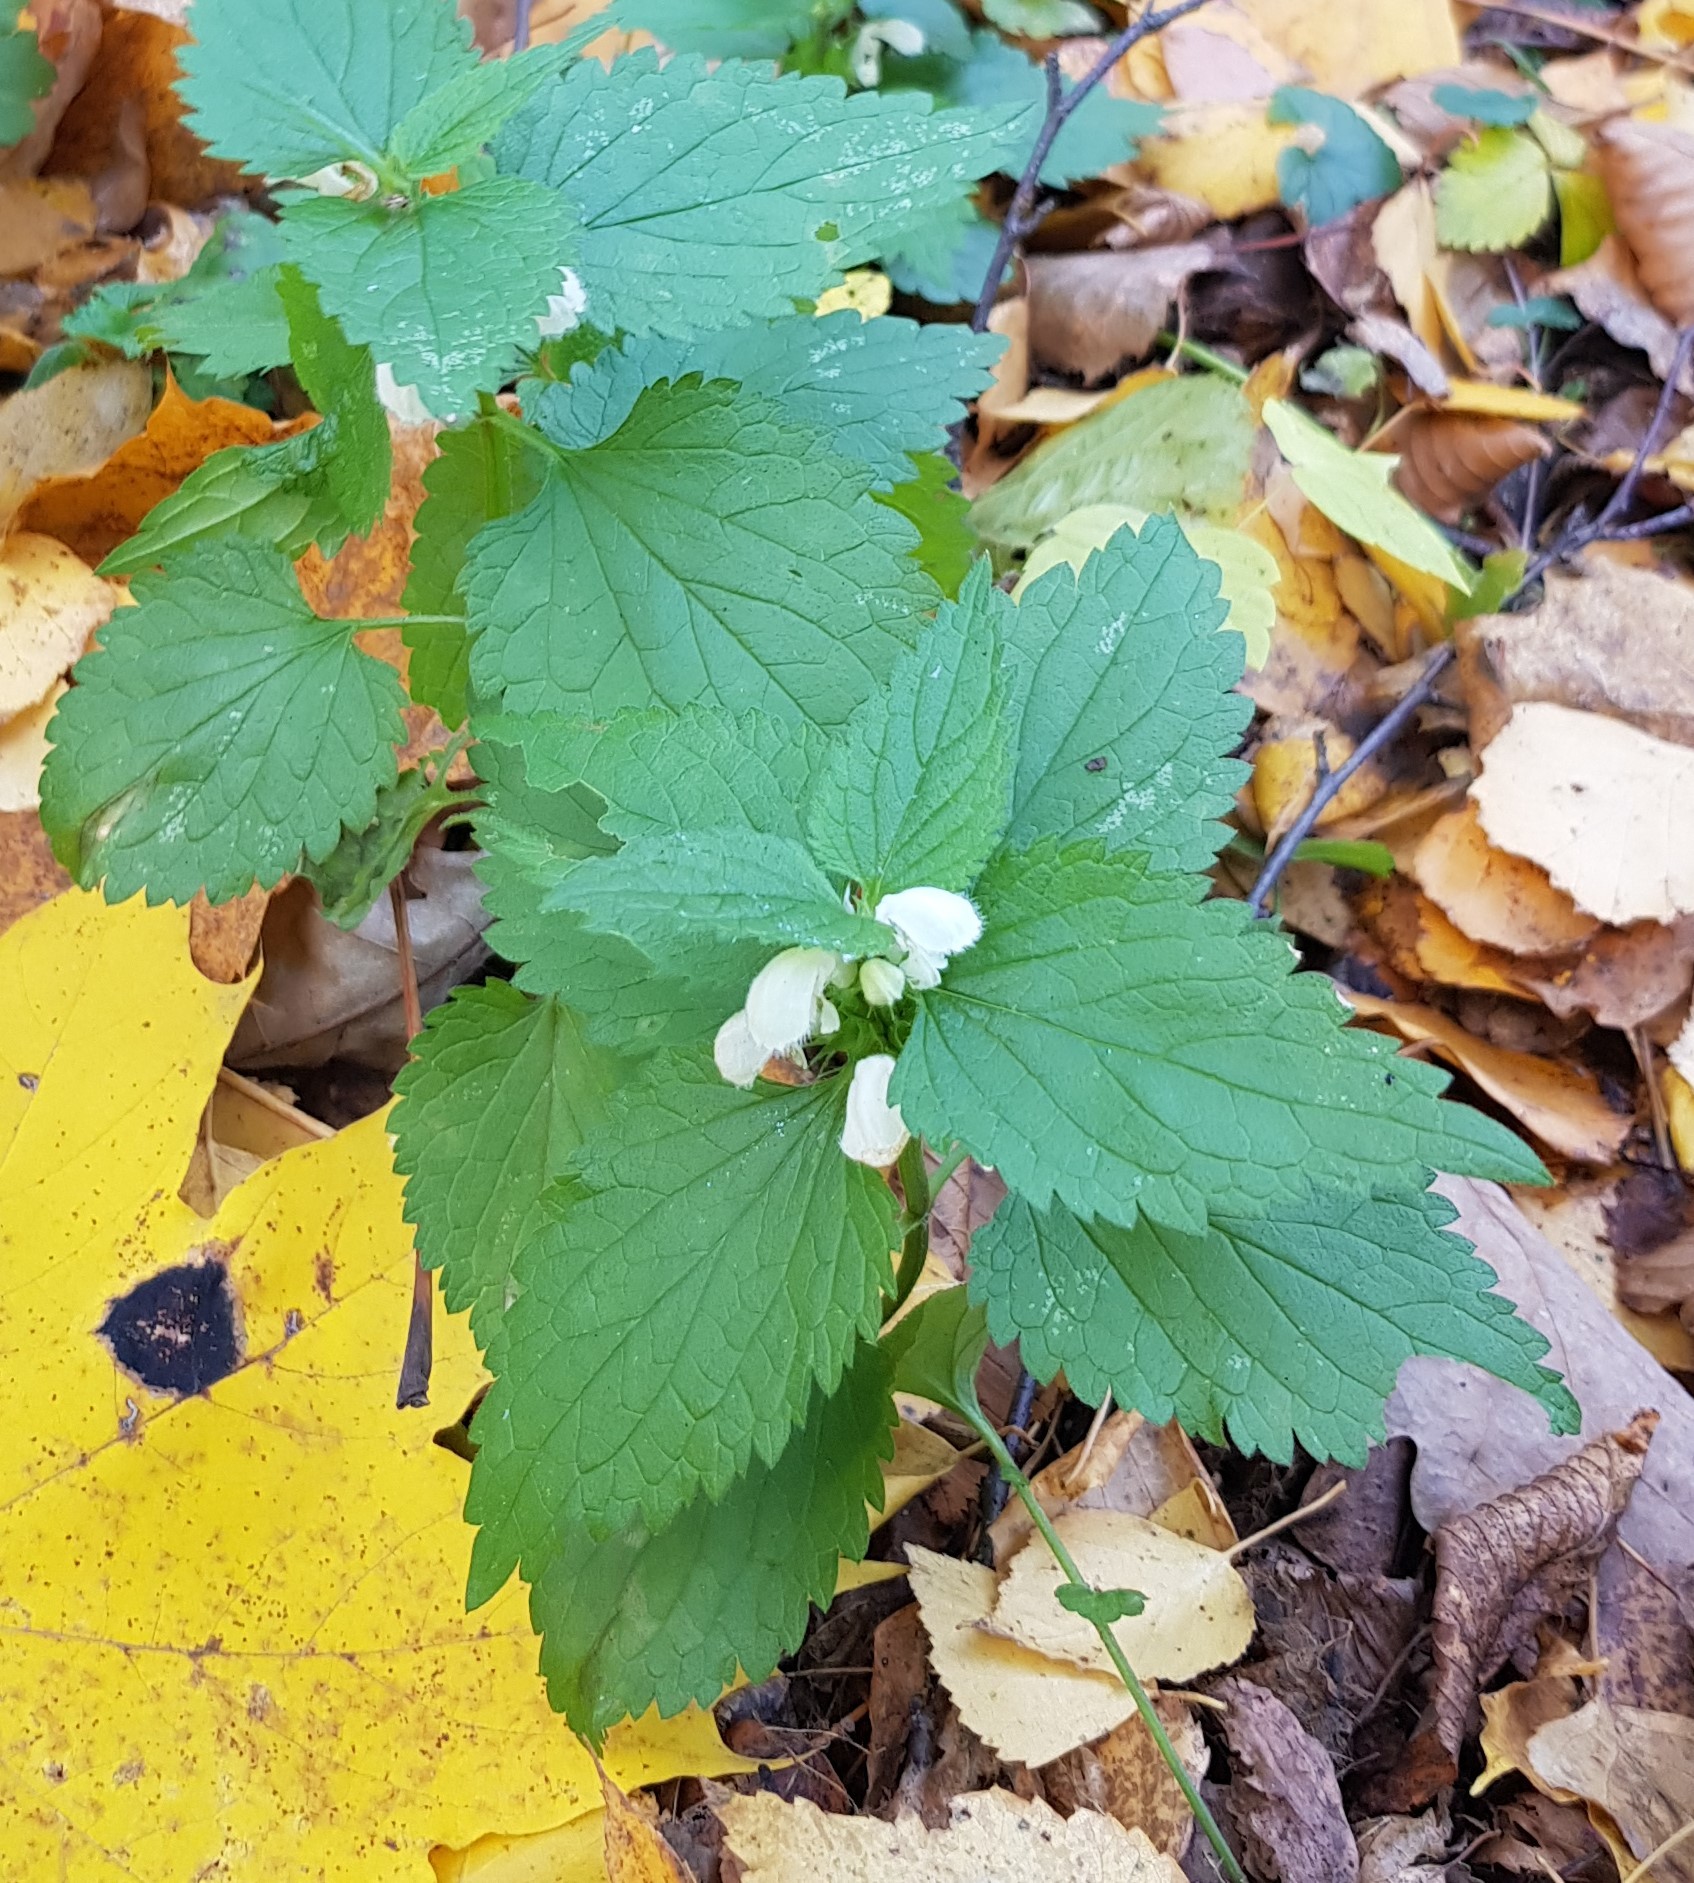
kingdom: Plantae
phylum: Tracheophyta
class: Magnoliopsida
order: Lamiales
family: Lamiaceae
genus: Lamium
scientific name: Lamium album
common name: White dead-nettle
